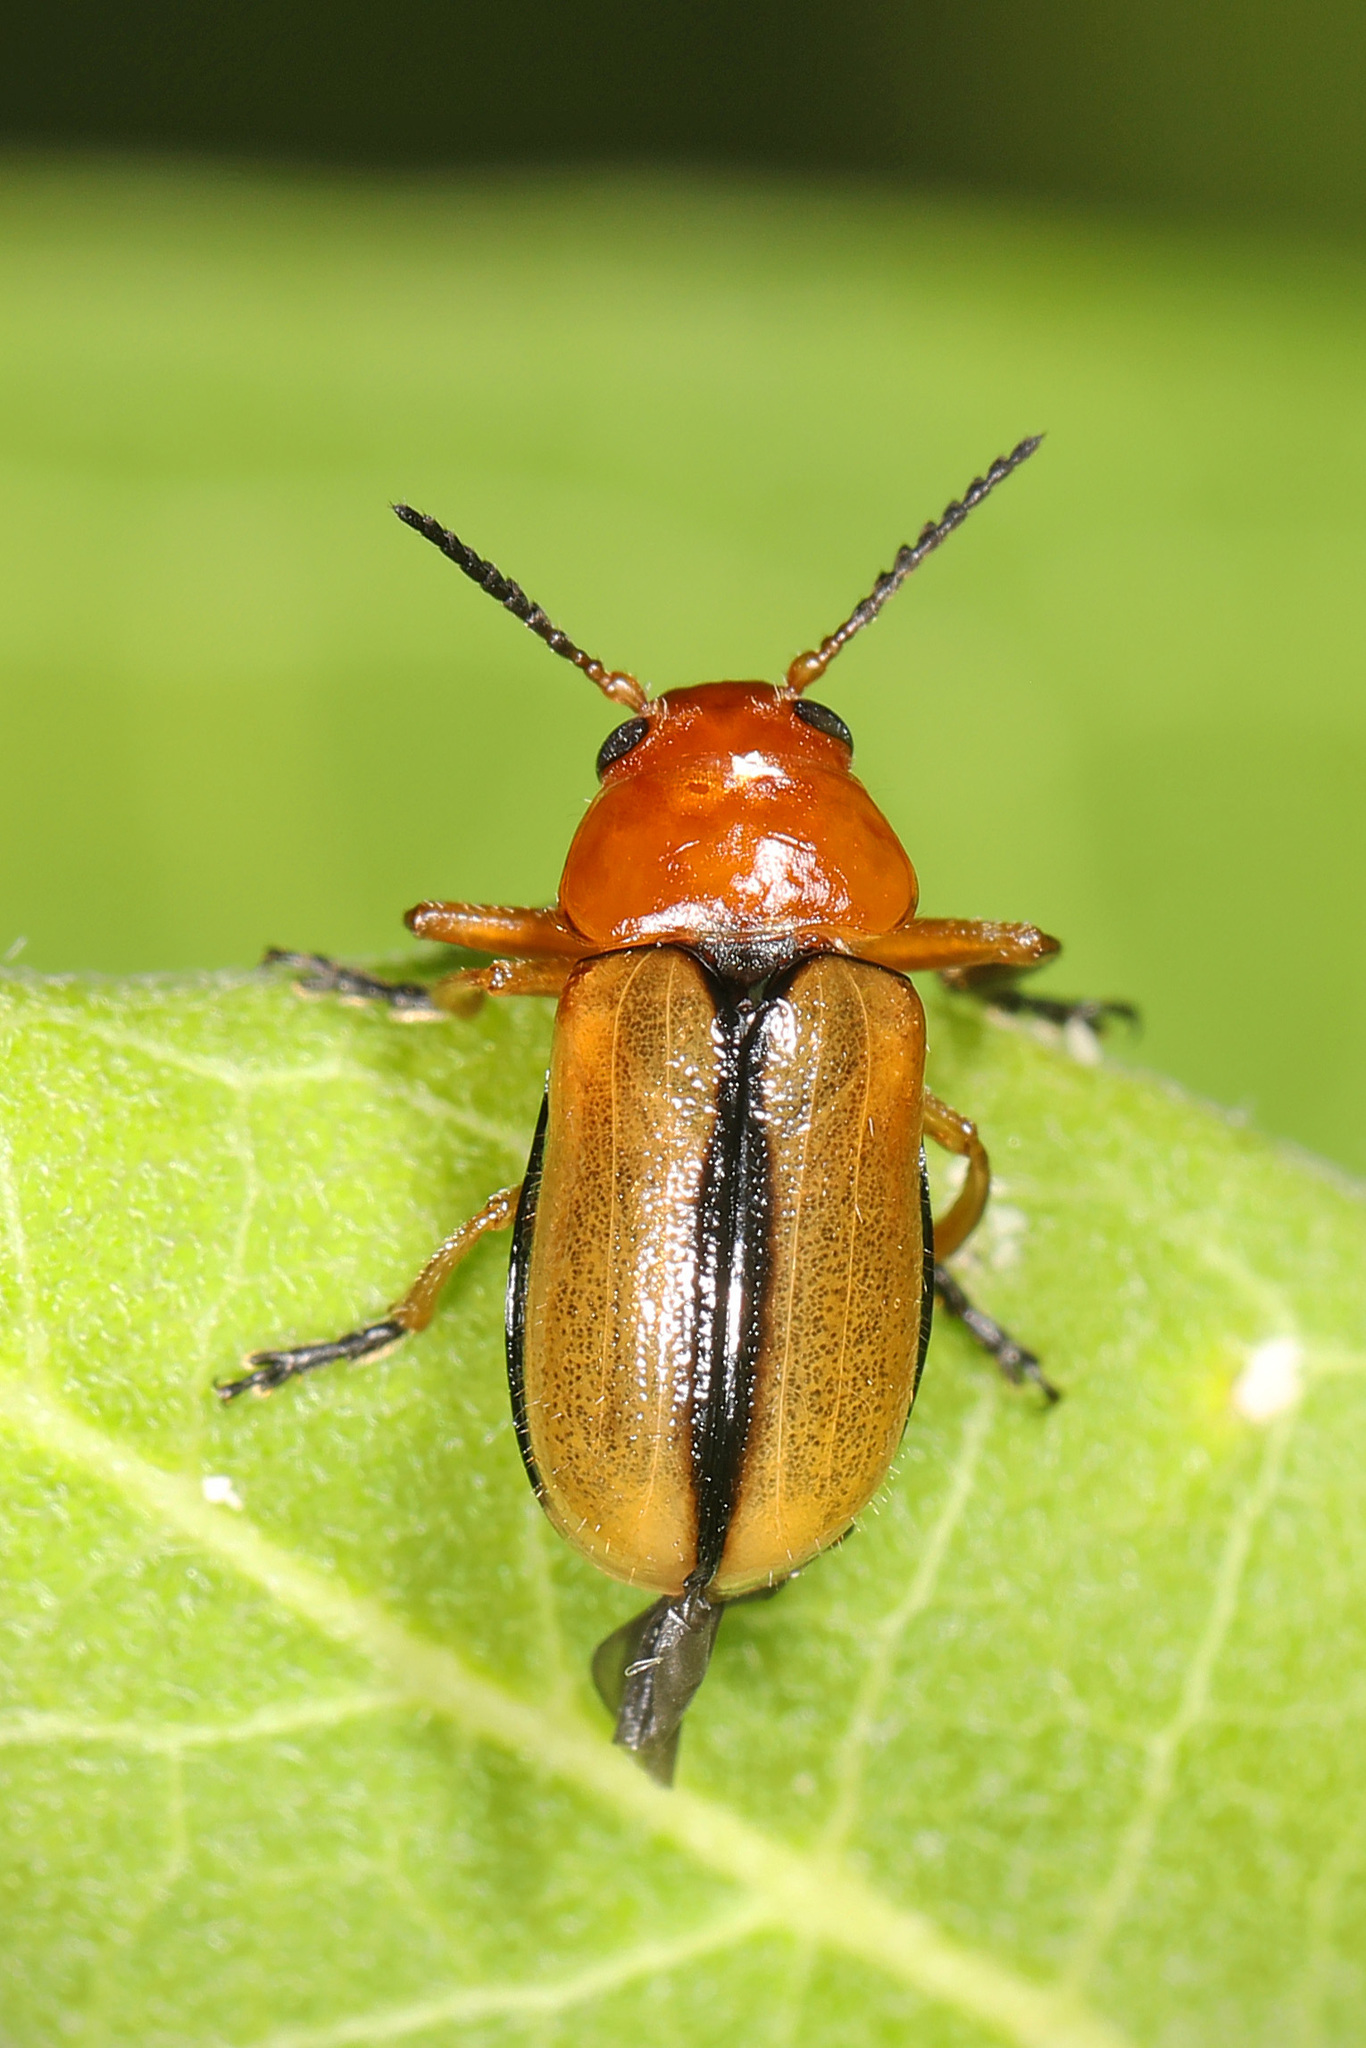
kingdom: Animalia
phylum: Arthropoda
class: Insecta
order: Coleoptera
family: Chrysomelidae
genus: Anomoea
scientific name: Anomoea laticlavia
